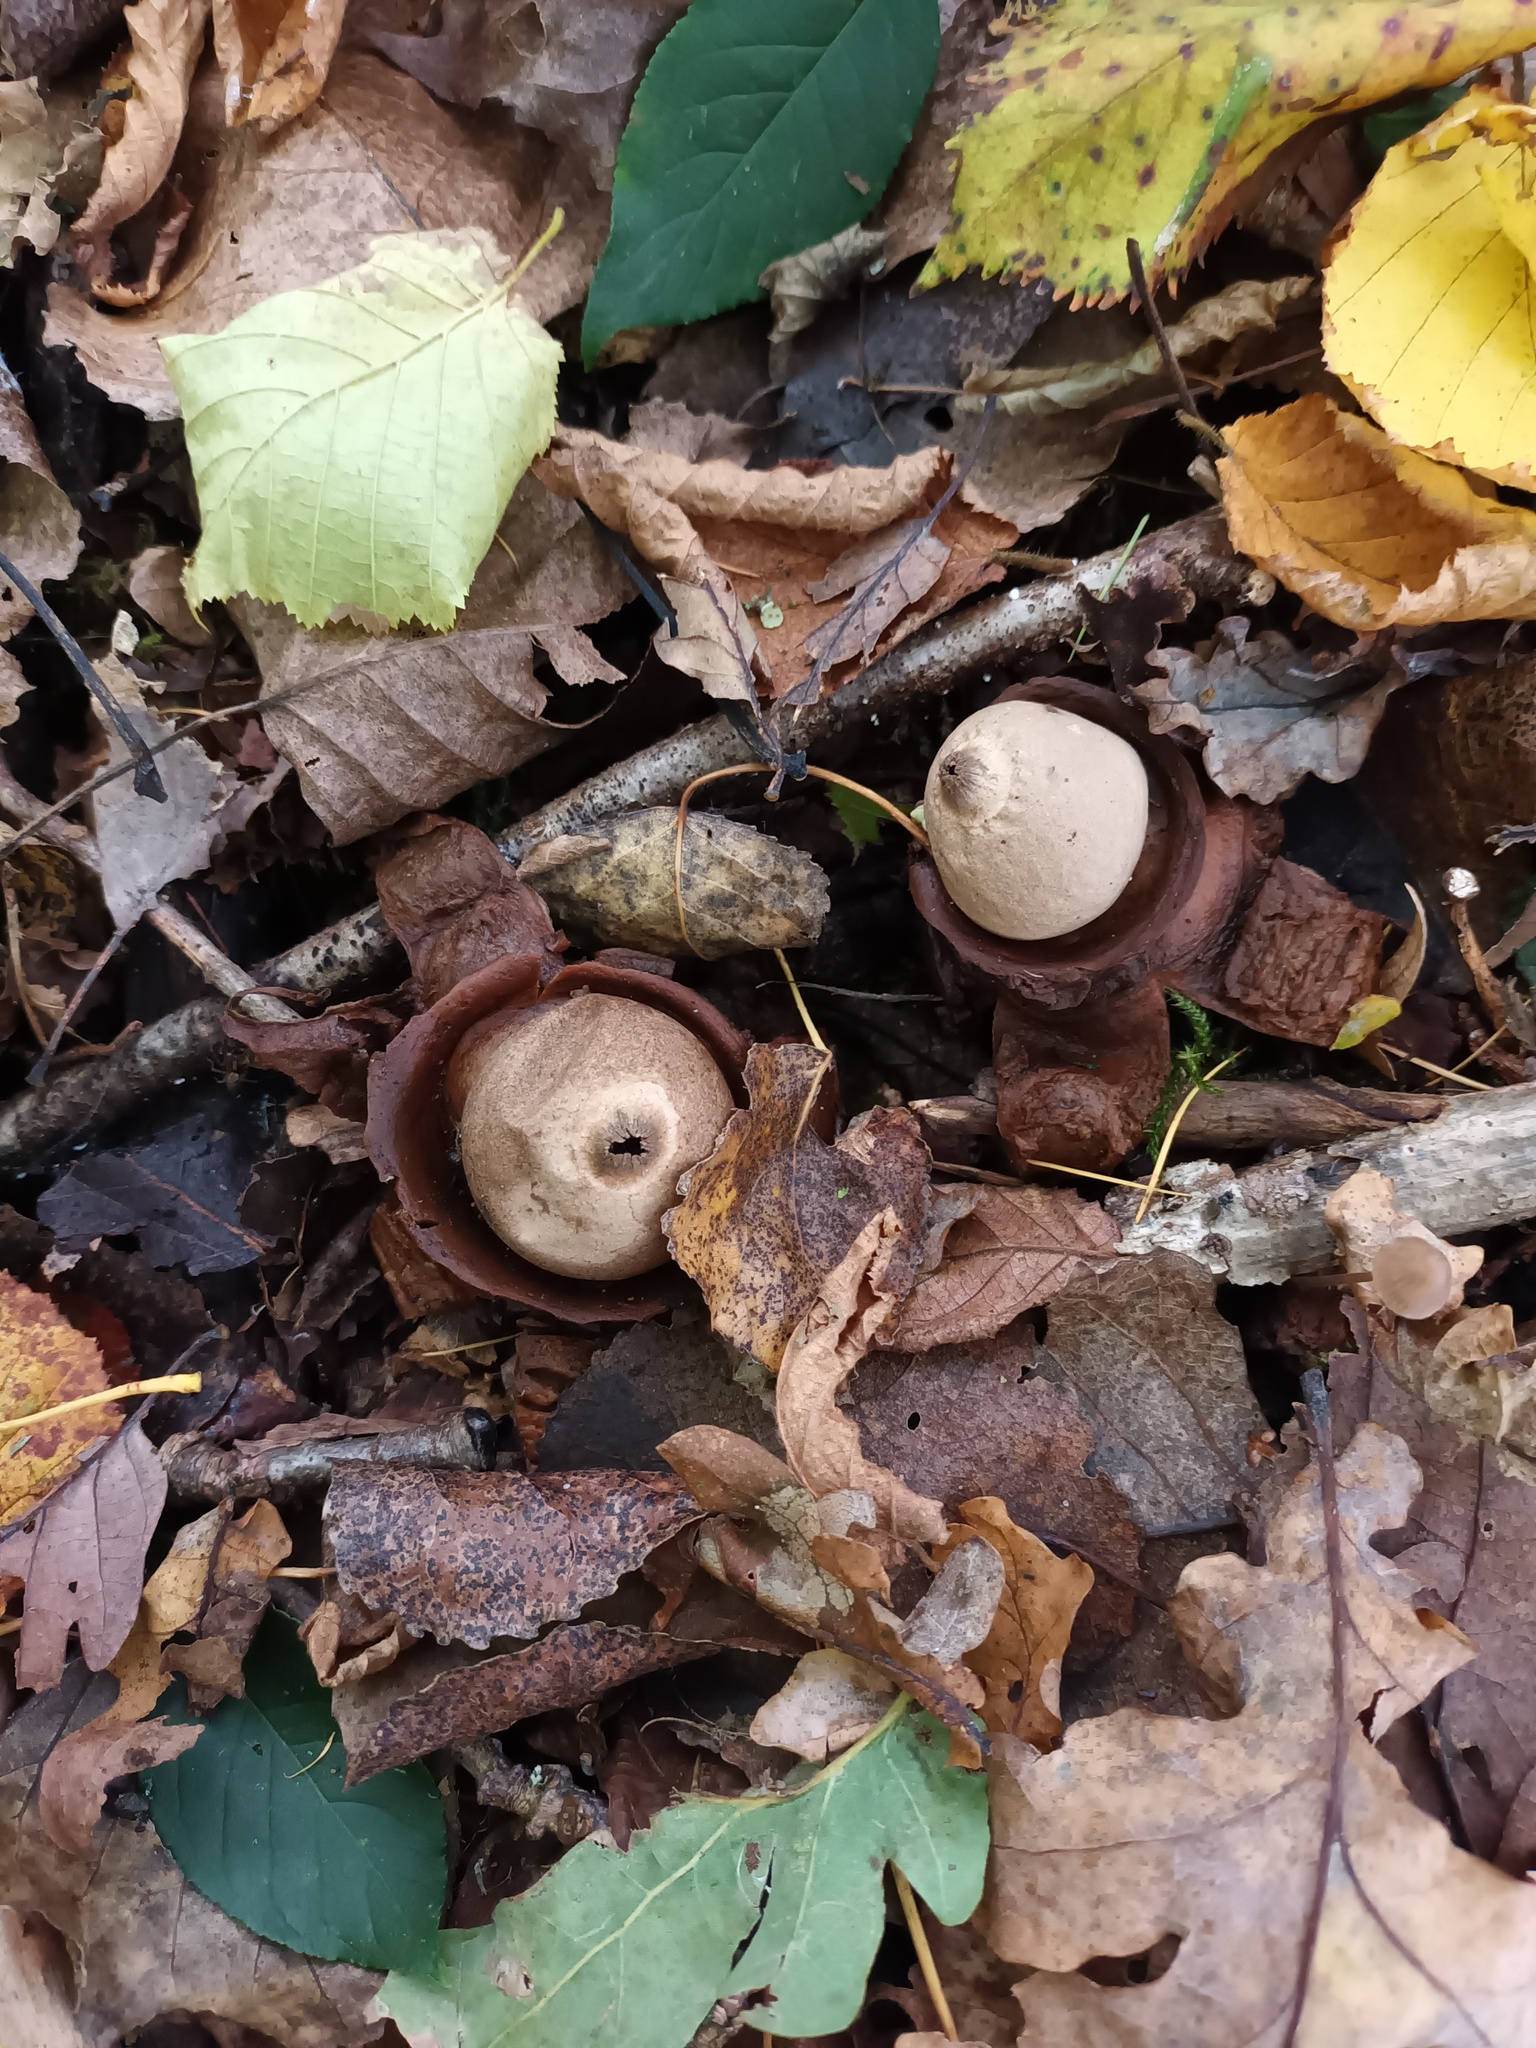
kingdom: Fungi
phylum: Basidiomycota
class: Agaricomycetes
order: Geastrales
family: Geastraceae
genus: Geastrum
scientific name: Geastrum michelianum
